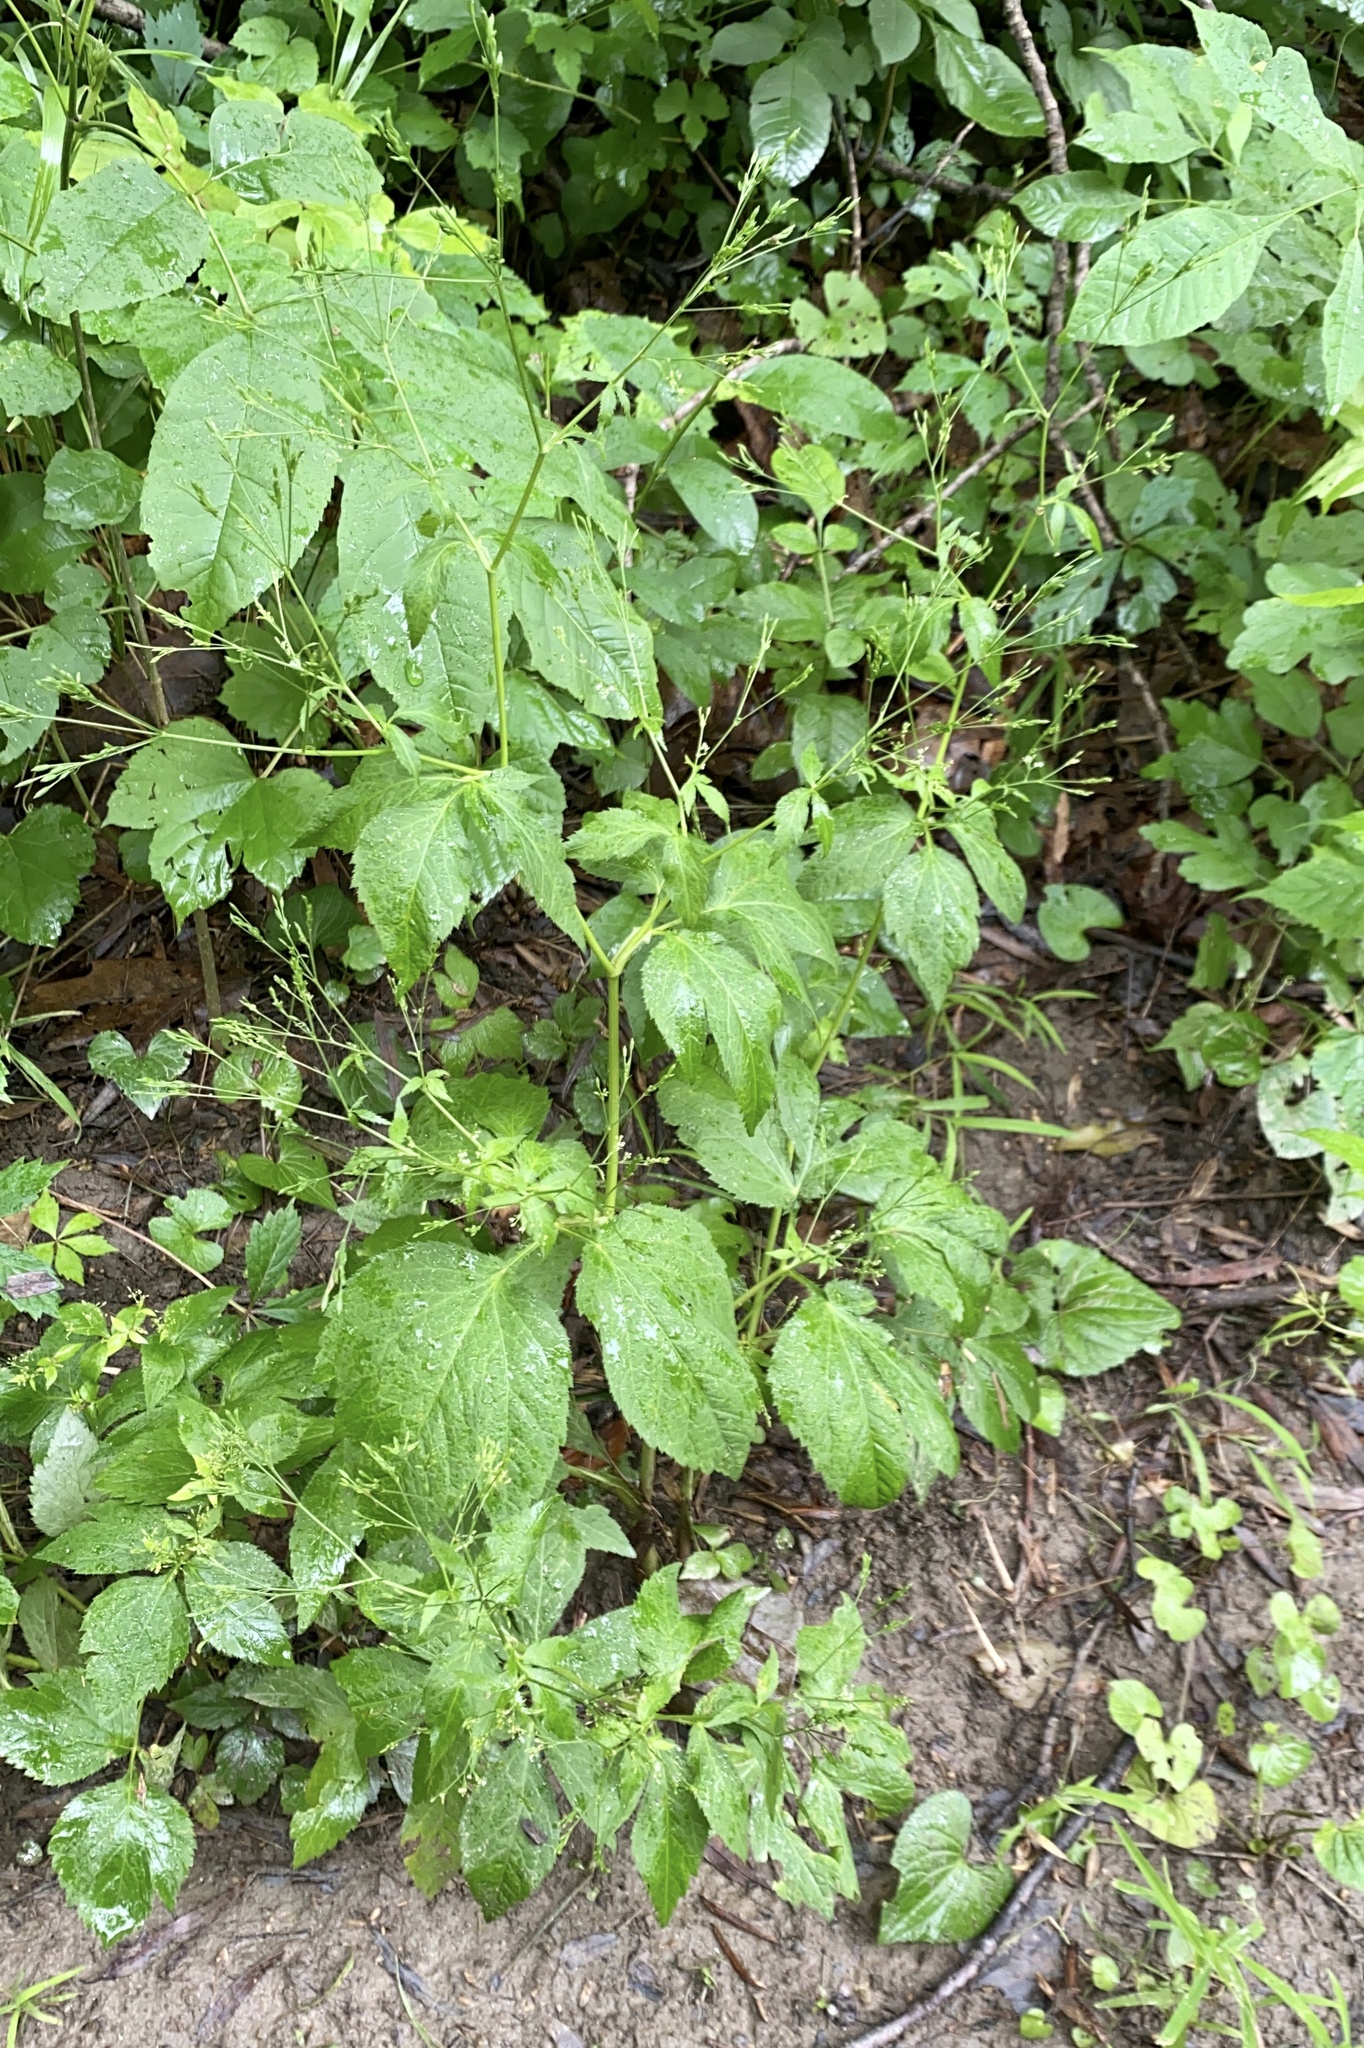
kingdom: Plantae
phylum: Tracheophyta
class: Magnoliopsida
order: Apiales
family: Apiaceae
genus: Cryptotaenia
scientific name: Cryptotaenia canadensis
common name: Honewort
